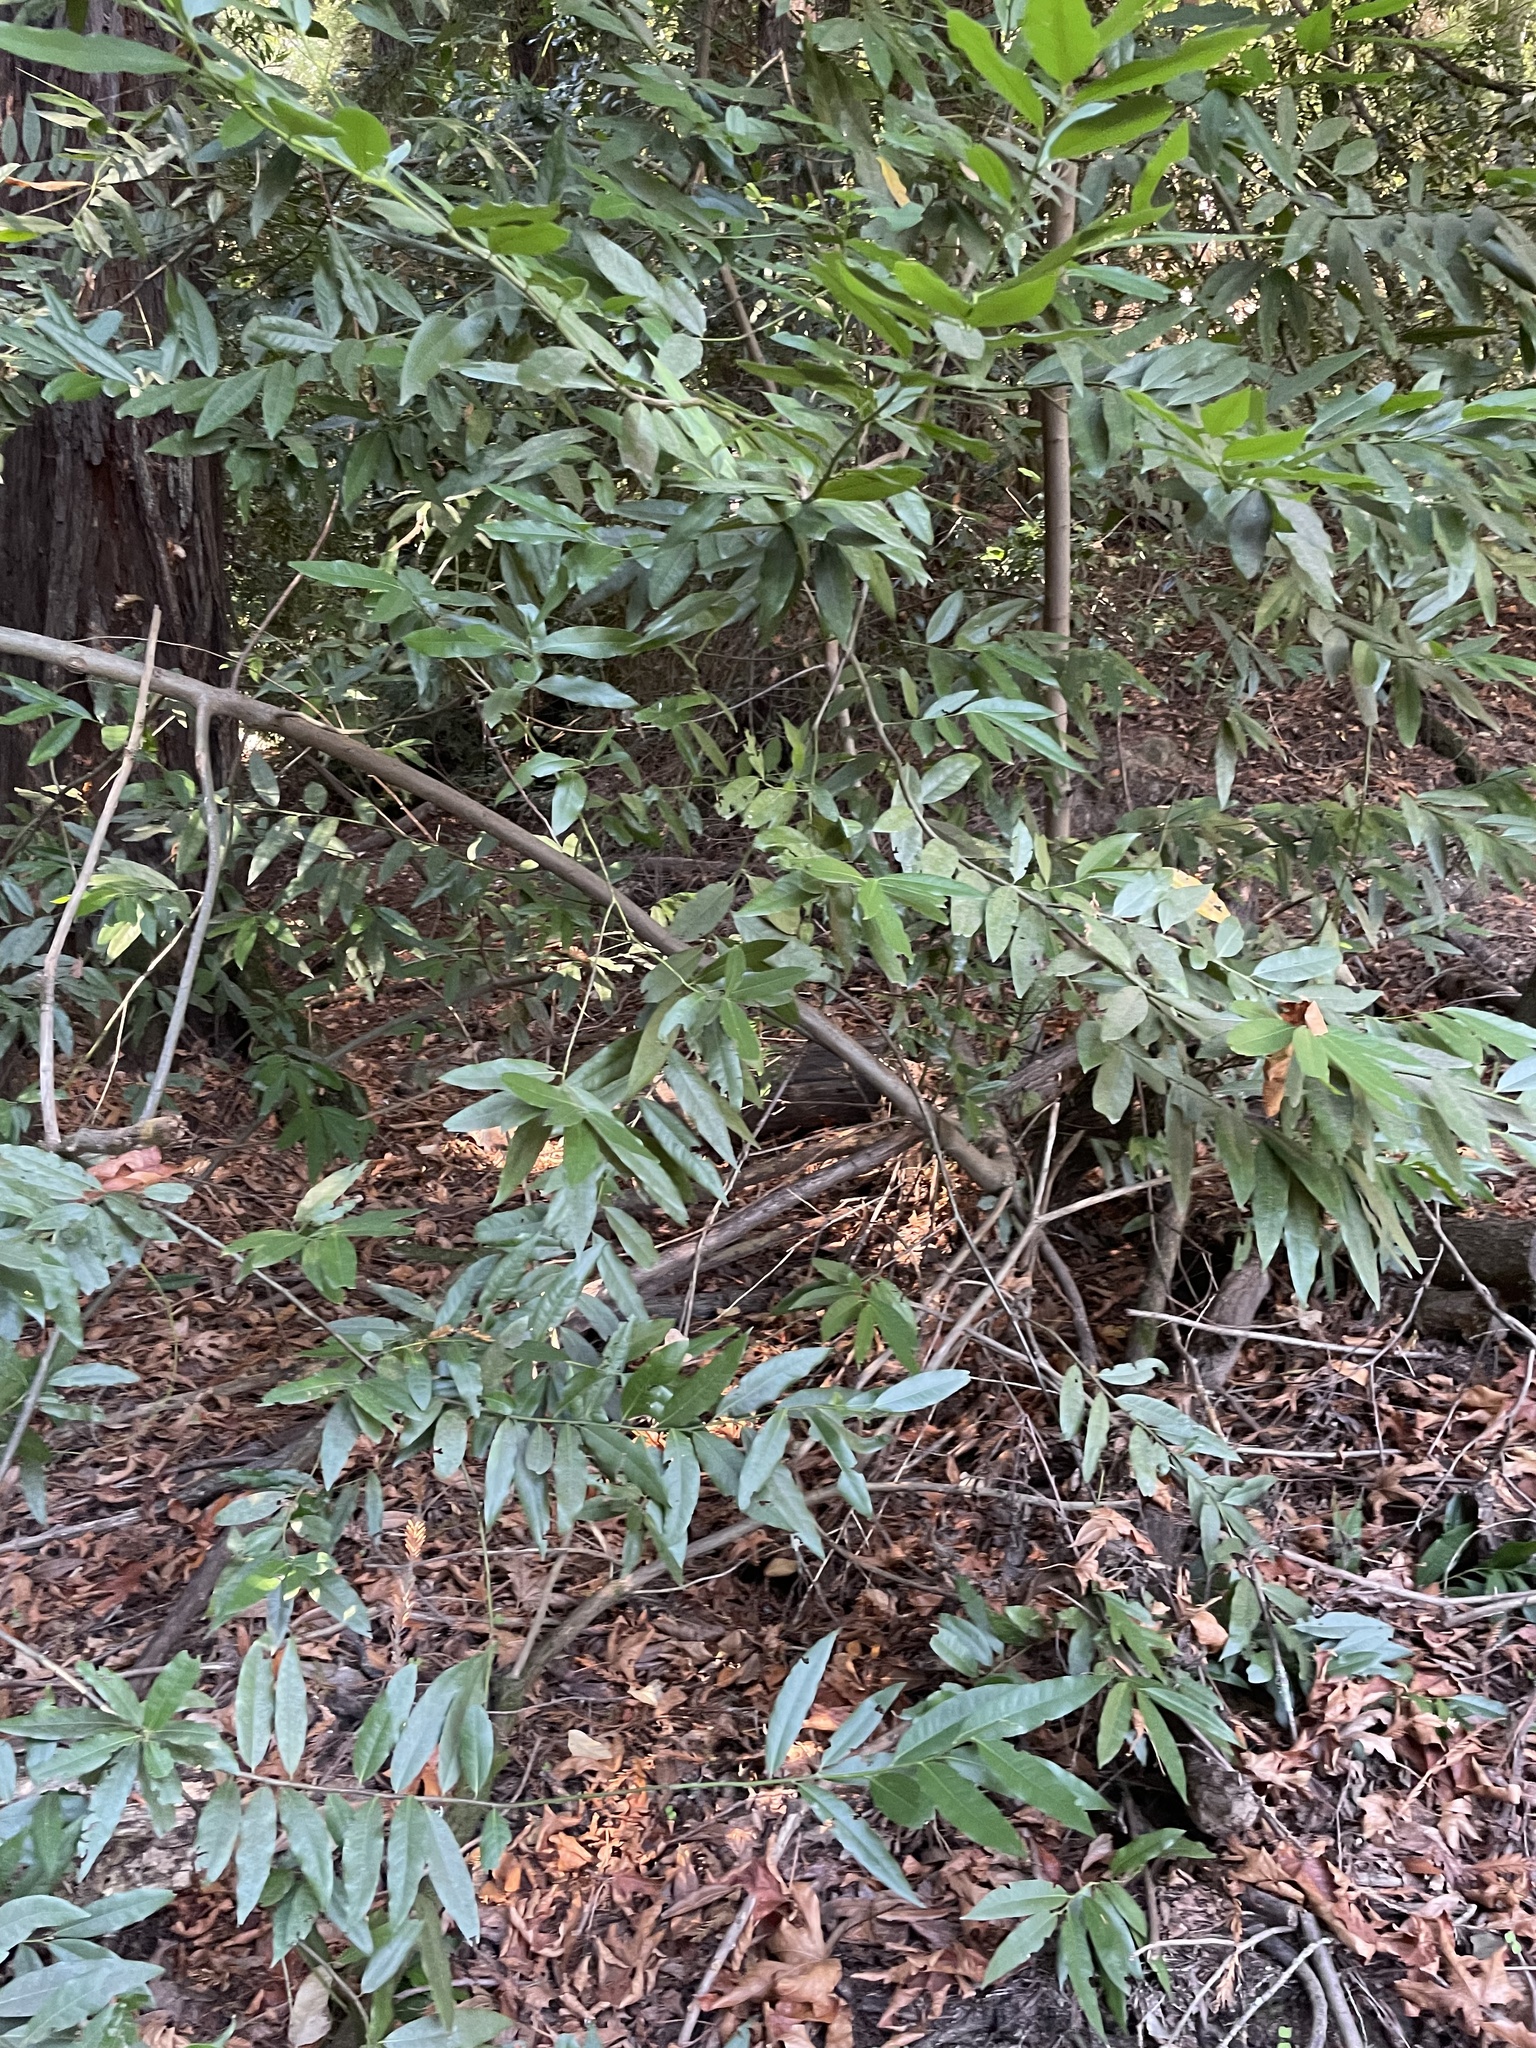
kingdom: Plantae
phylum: Tracheophyta
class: Magnoliopsida
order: Laurales
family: Lauraceae
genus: Umbellularia
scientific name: Umbellularia californica
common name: California bay
